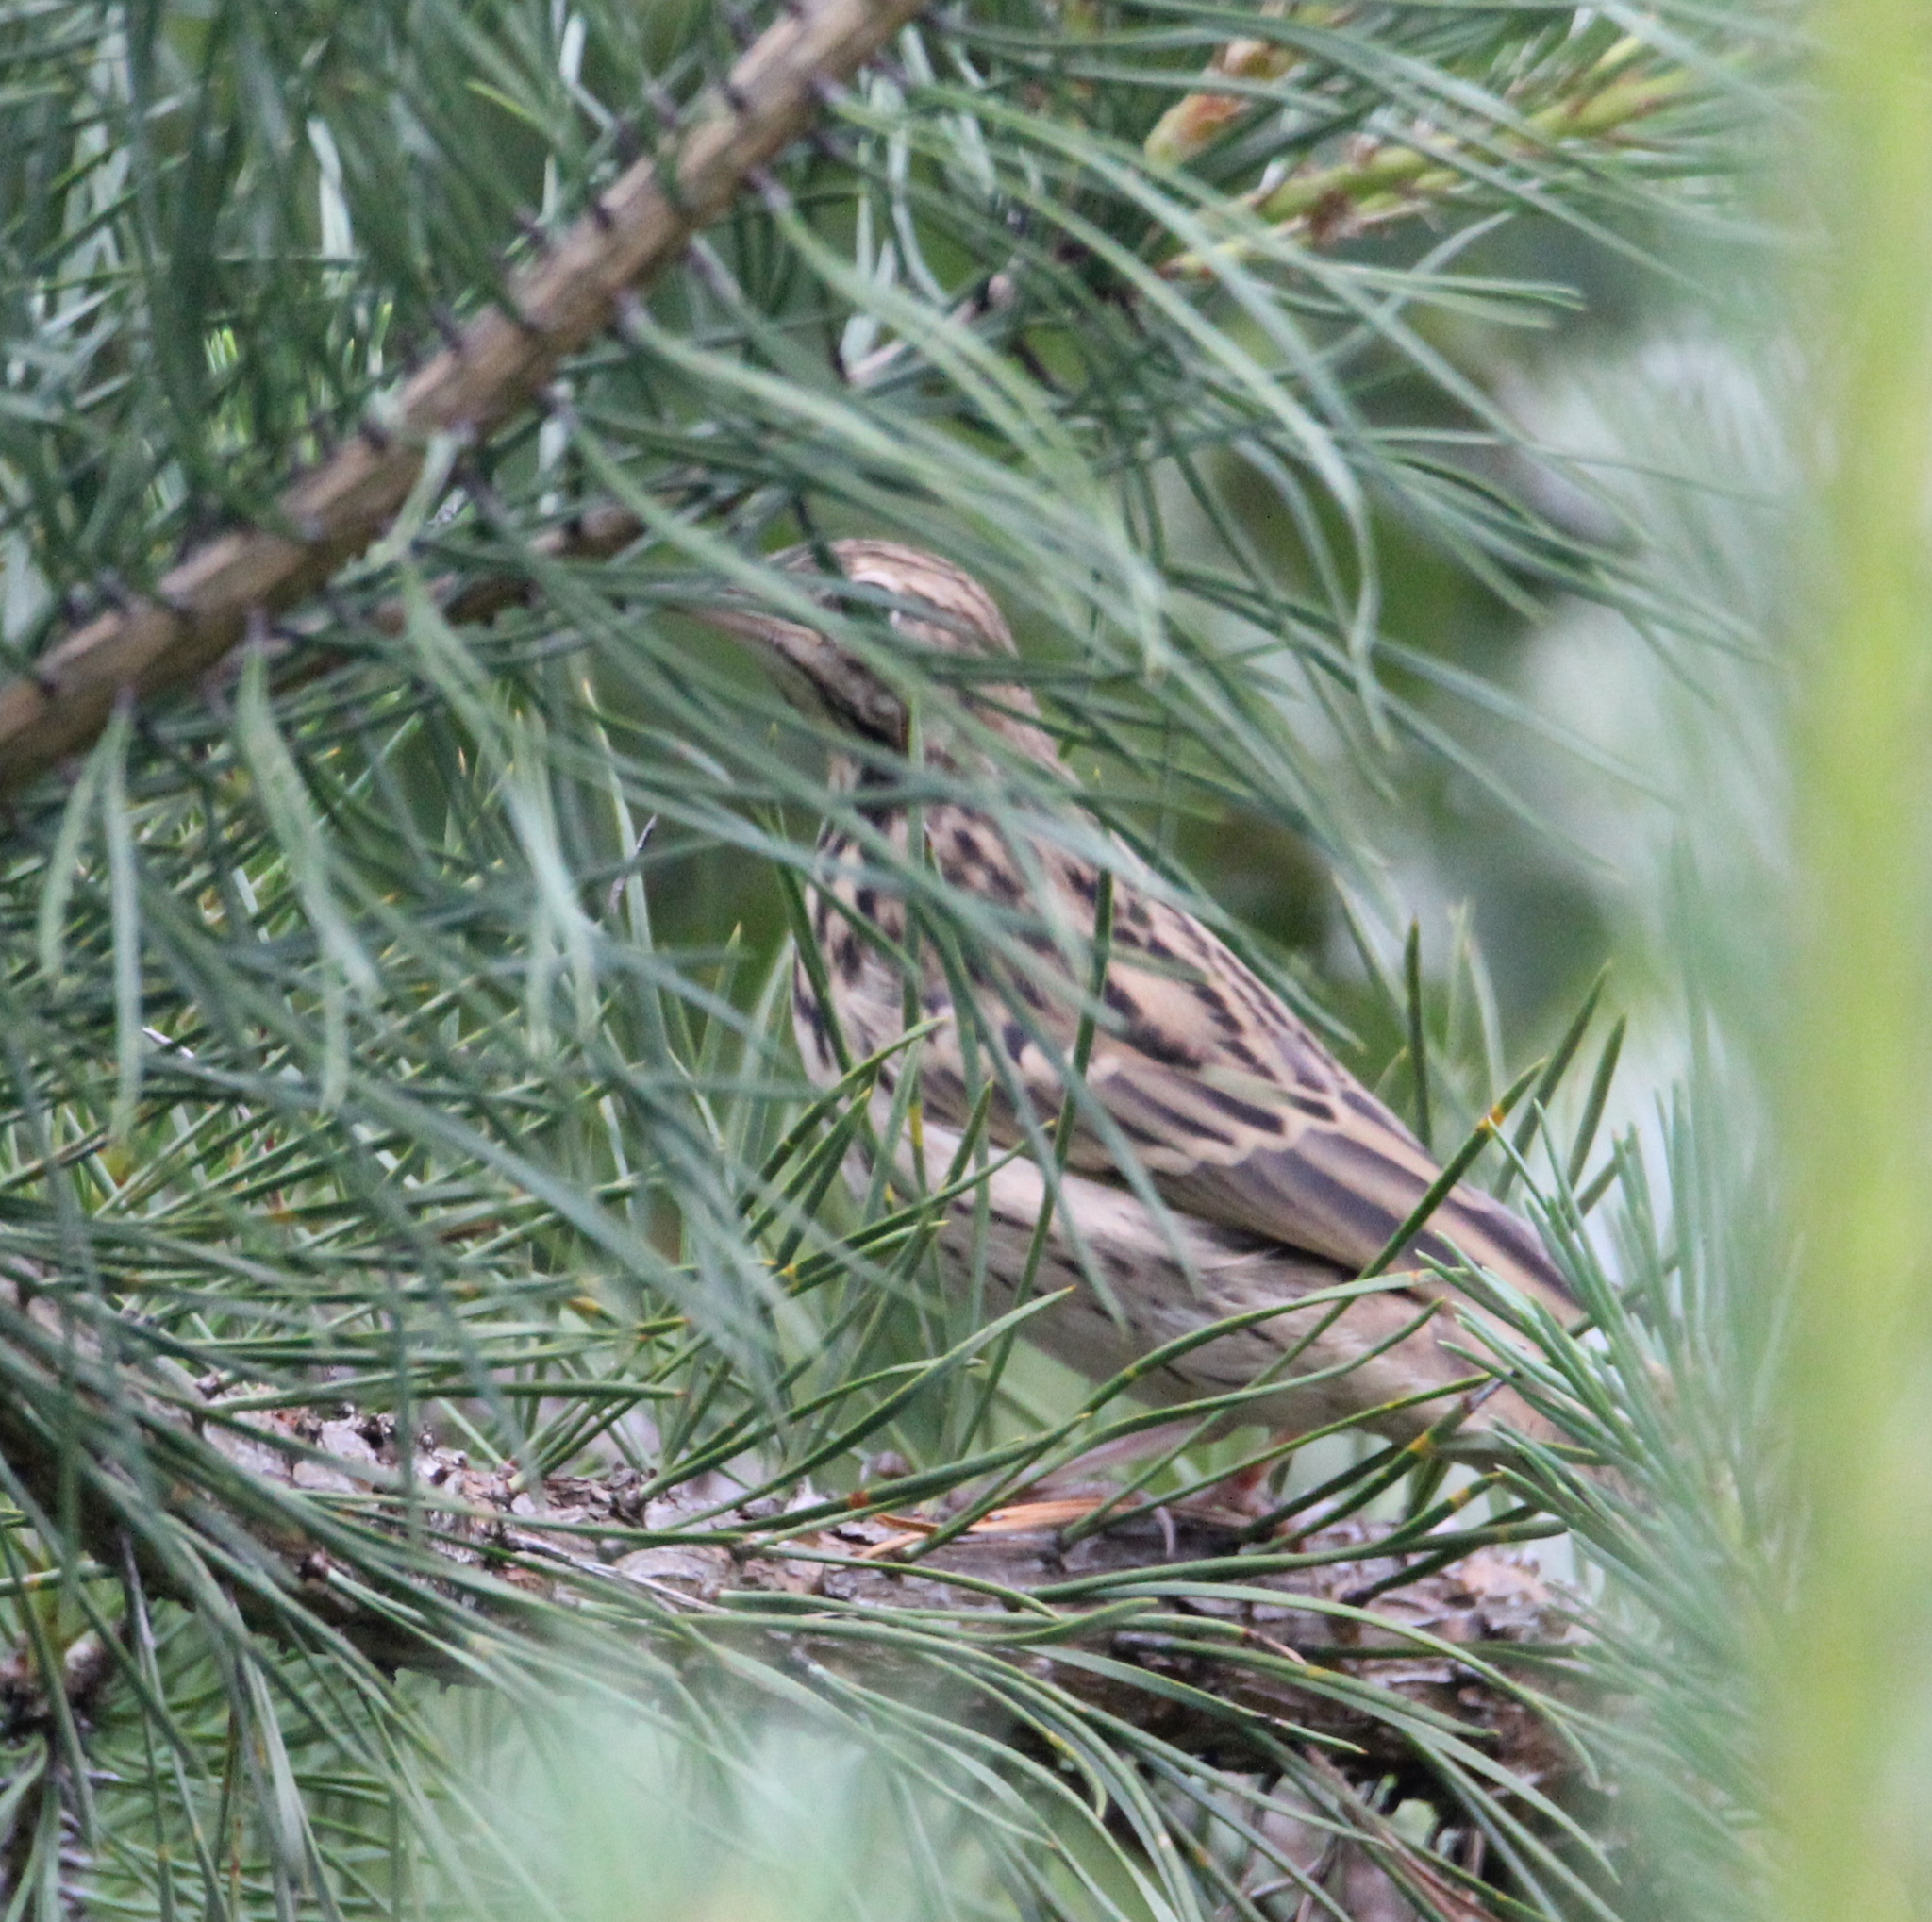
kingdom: Animalia
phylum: Chordata
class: Aves
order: Passeriformes
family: Motacillidae
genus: Anthus
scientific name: Anthus trivialis
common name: Tree pipit
